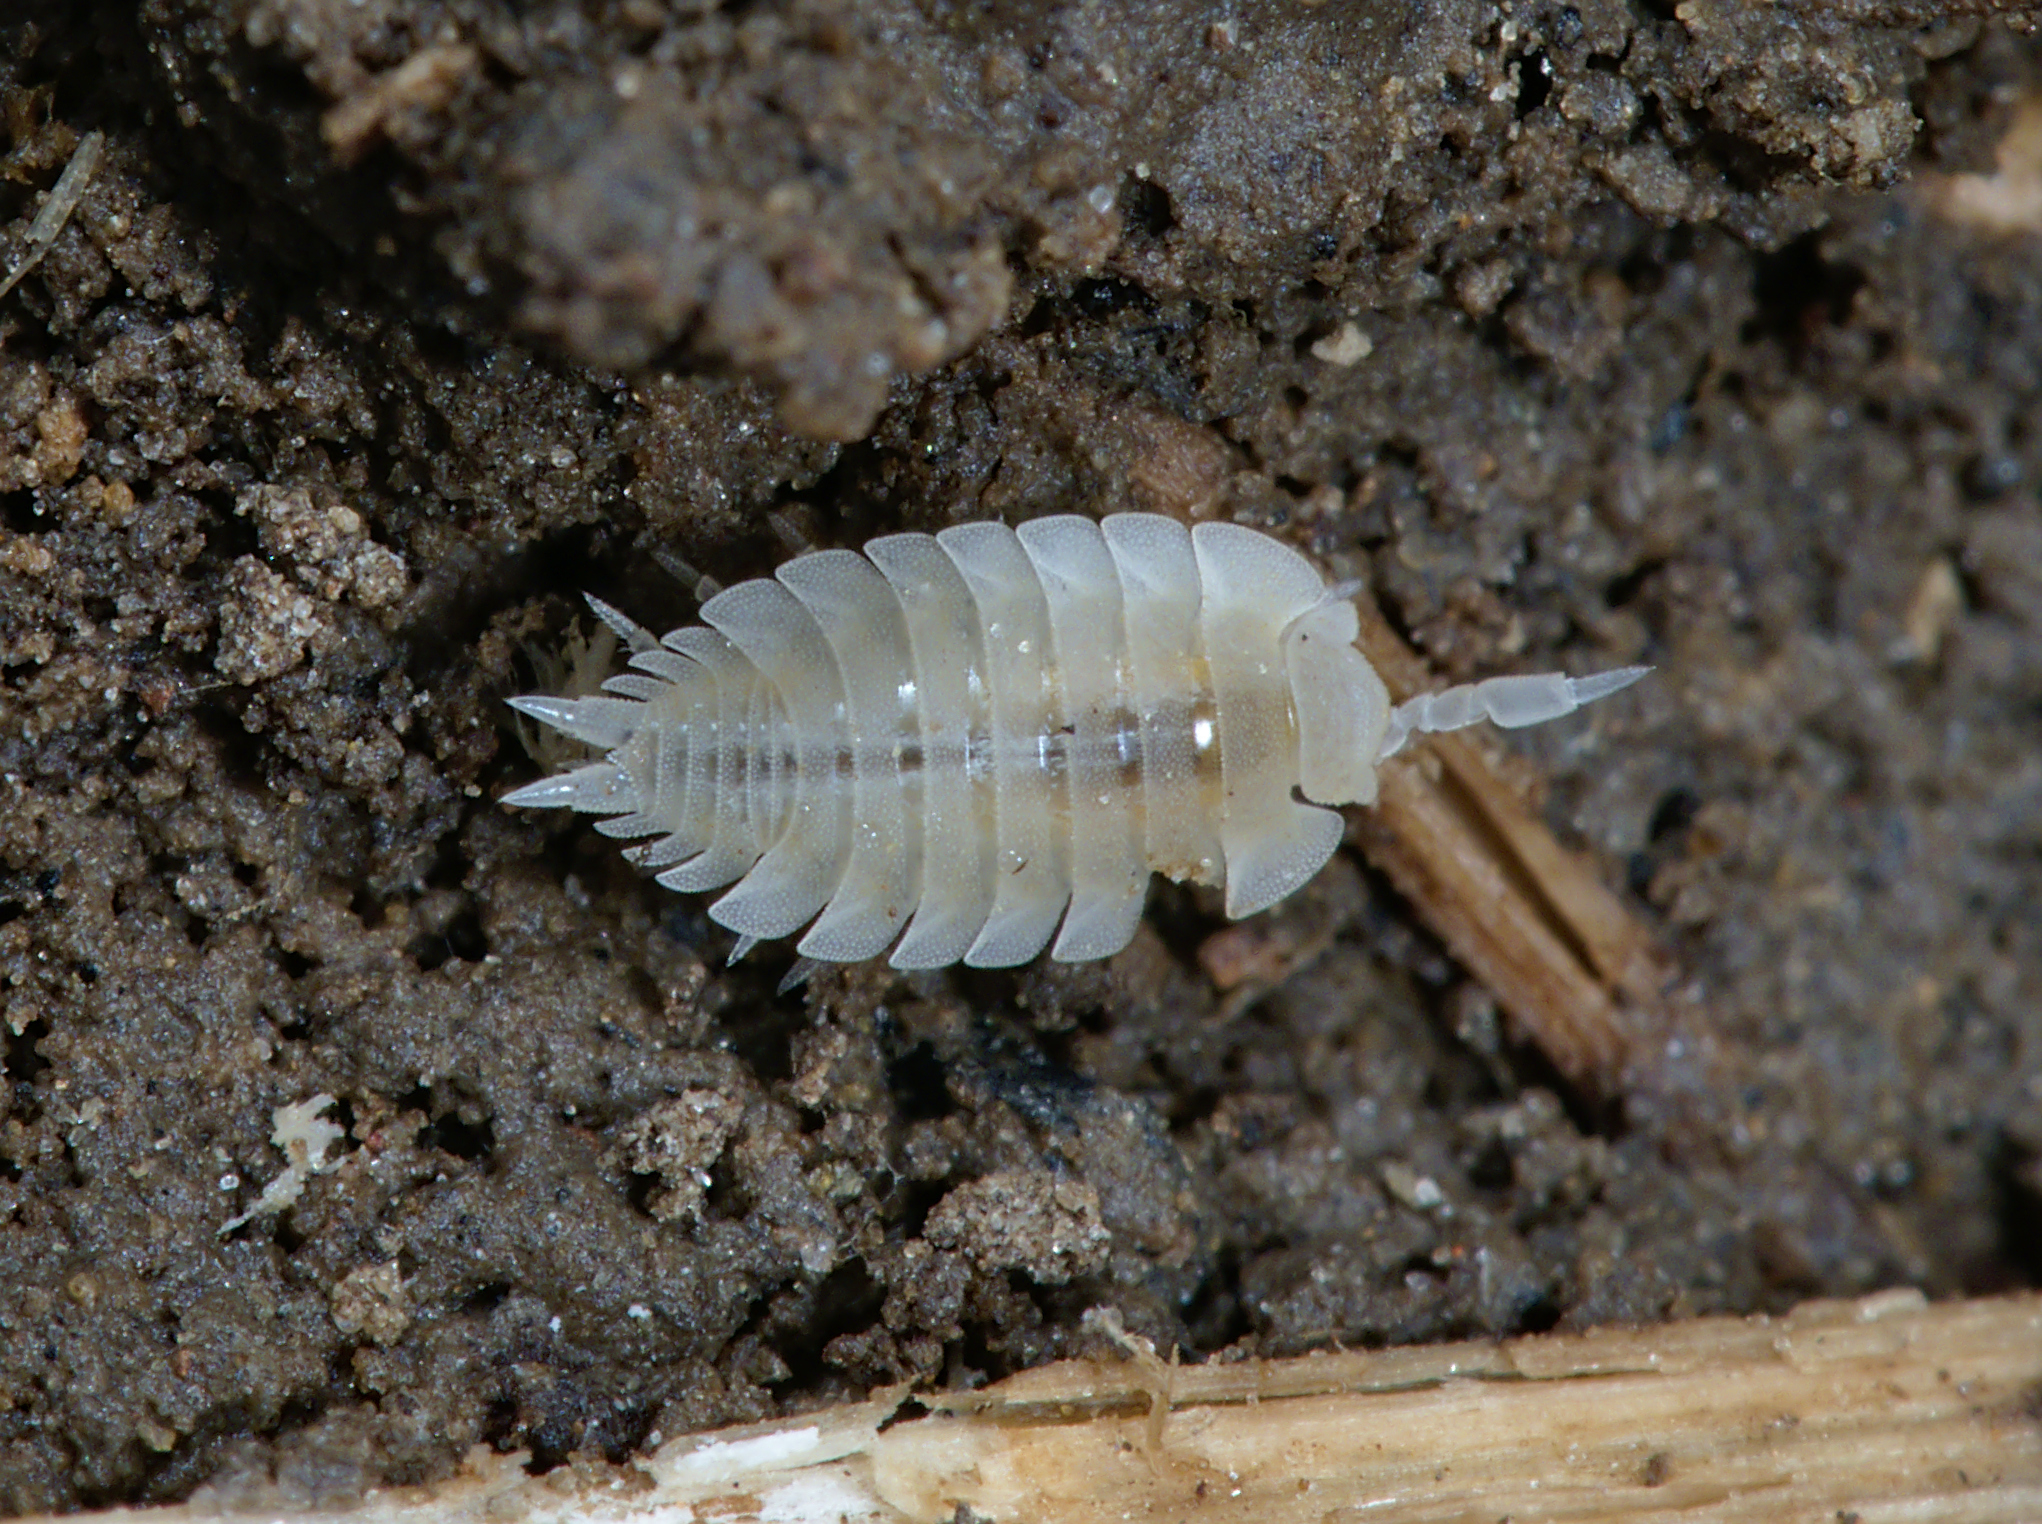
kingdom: Animalia
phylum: Arthropoda
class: Malacostraca
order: Isopoda
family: Platyarthridae
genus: Platyarthrus
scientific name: Platyarthrus hoffmannseggii
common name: Ant woodlouse
